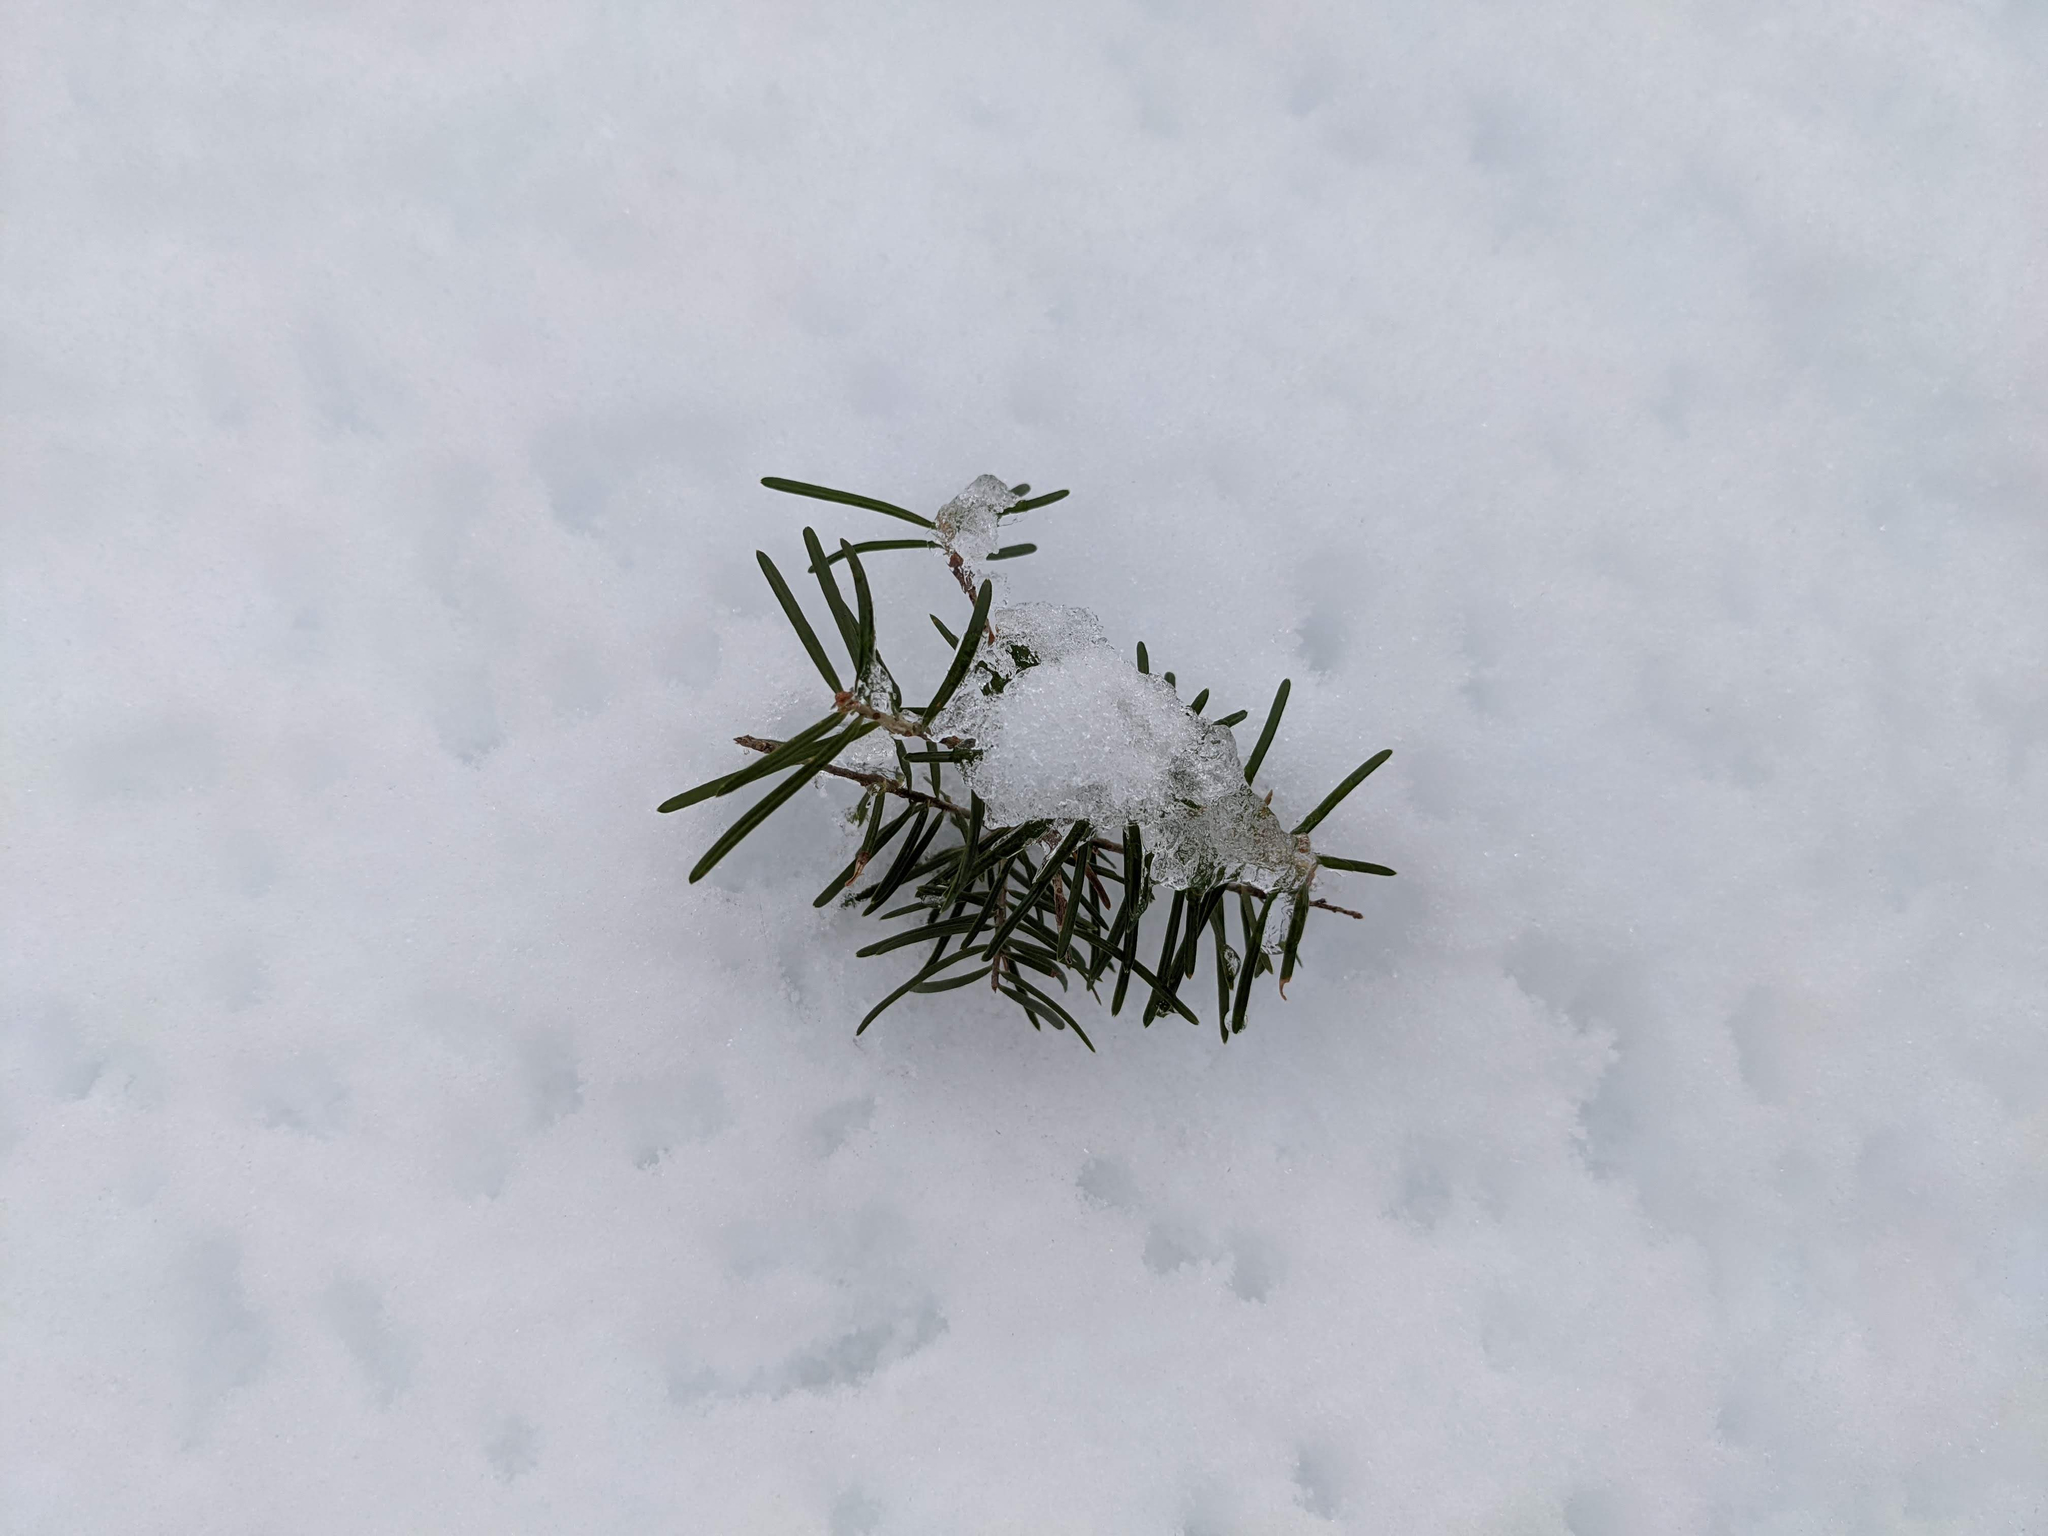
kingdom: Plantae
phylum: Tracheophyta
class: Pinopsida
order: Pinales
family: Pinaceae
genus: Abies
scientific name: Abies balsamea
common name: Balsam fir
